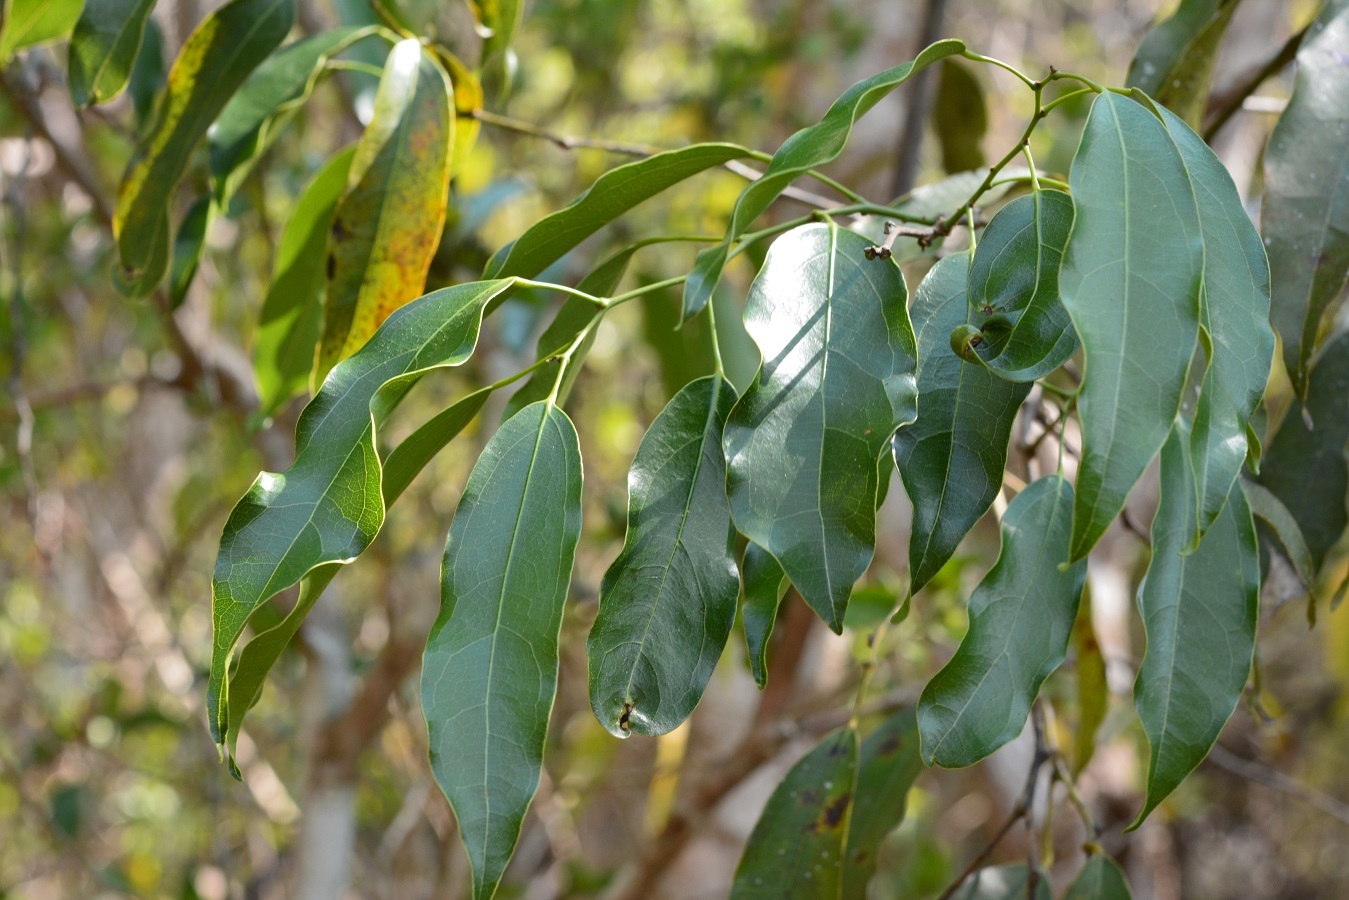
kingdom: Plantae
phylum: Tracheophyta
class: Magnoliopsida
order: Ranunculales
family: Menispermaceae
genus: Hyperbaena
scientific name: Hyperbaena mexicana
